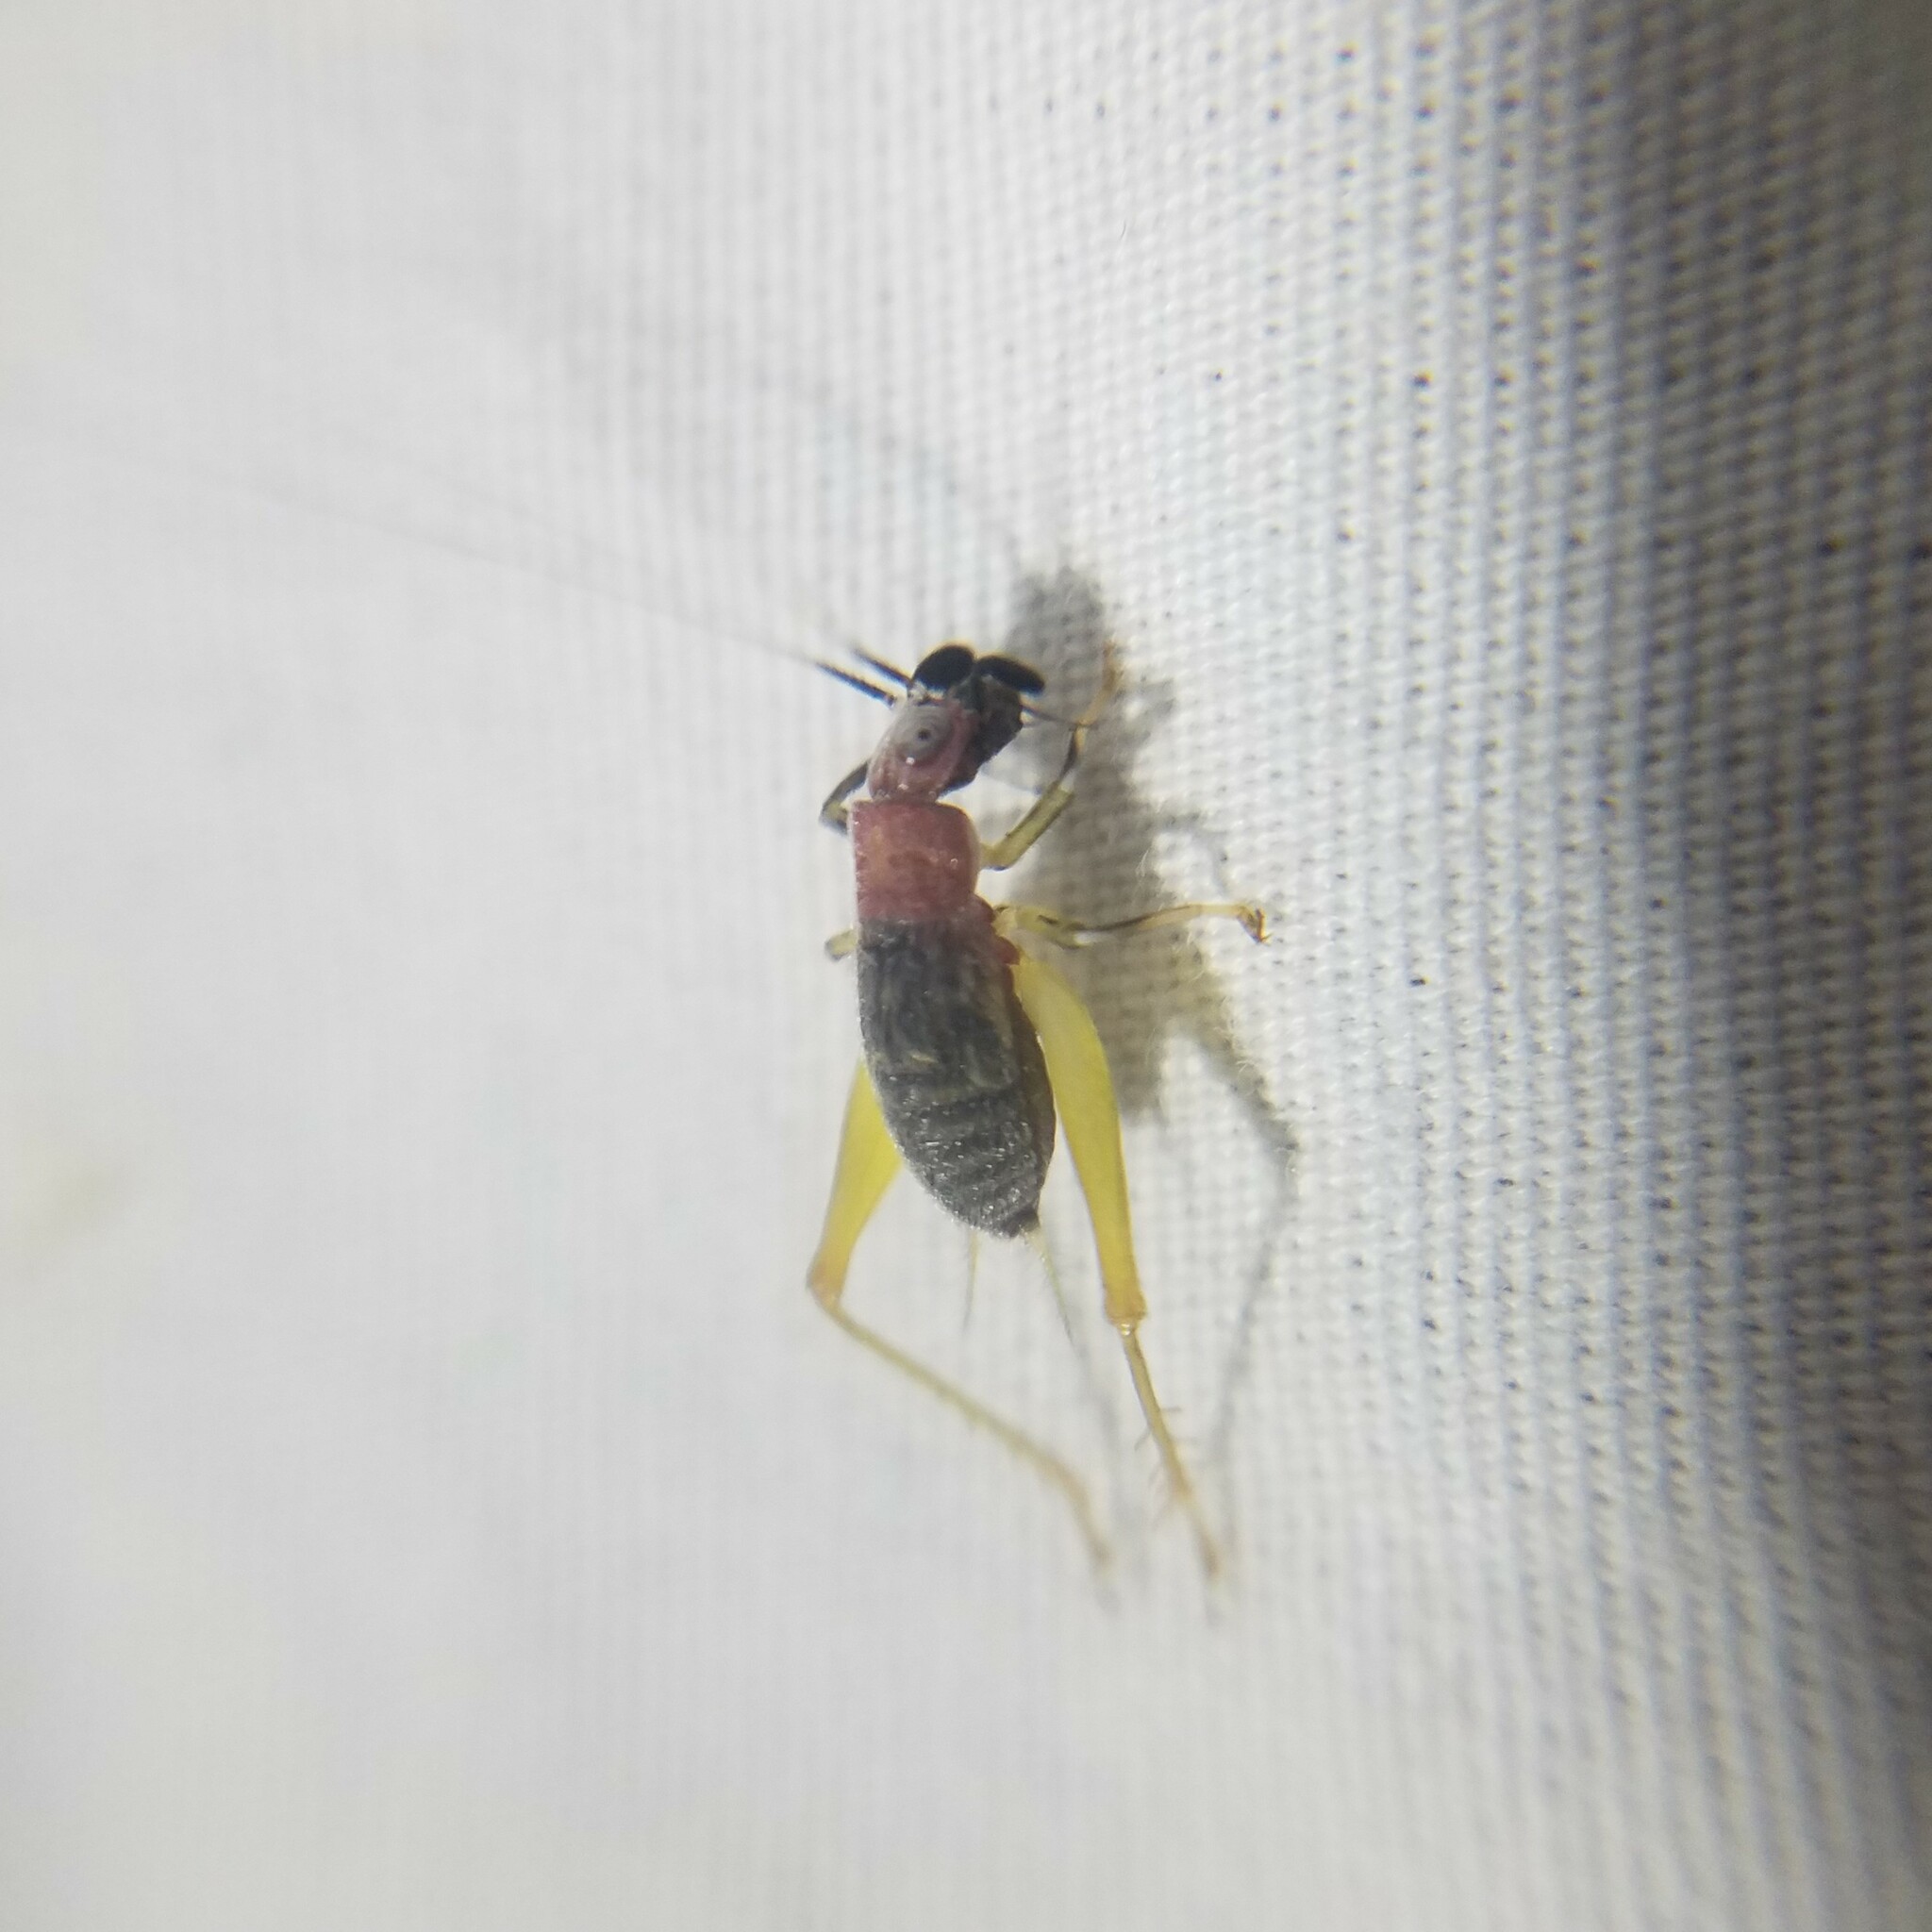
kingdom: Animalia
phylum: Arthropoda
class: Insecta
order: Orthoptera
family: Trigonidiidae
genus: Phyllopalpus
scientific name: Phyllopalpus pulchellus
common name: Handsome trig
